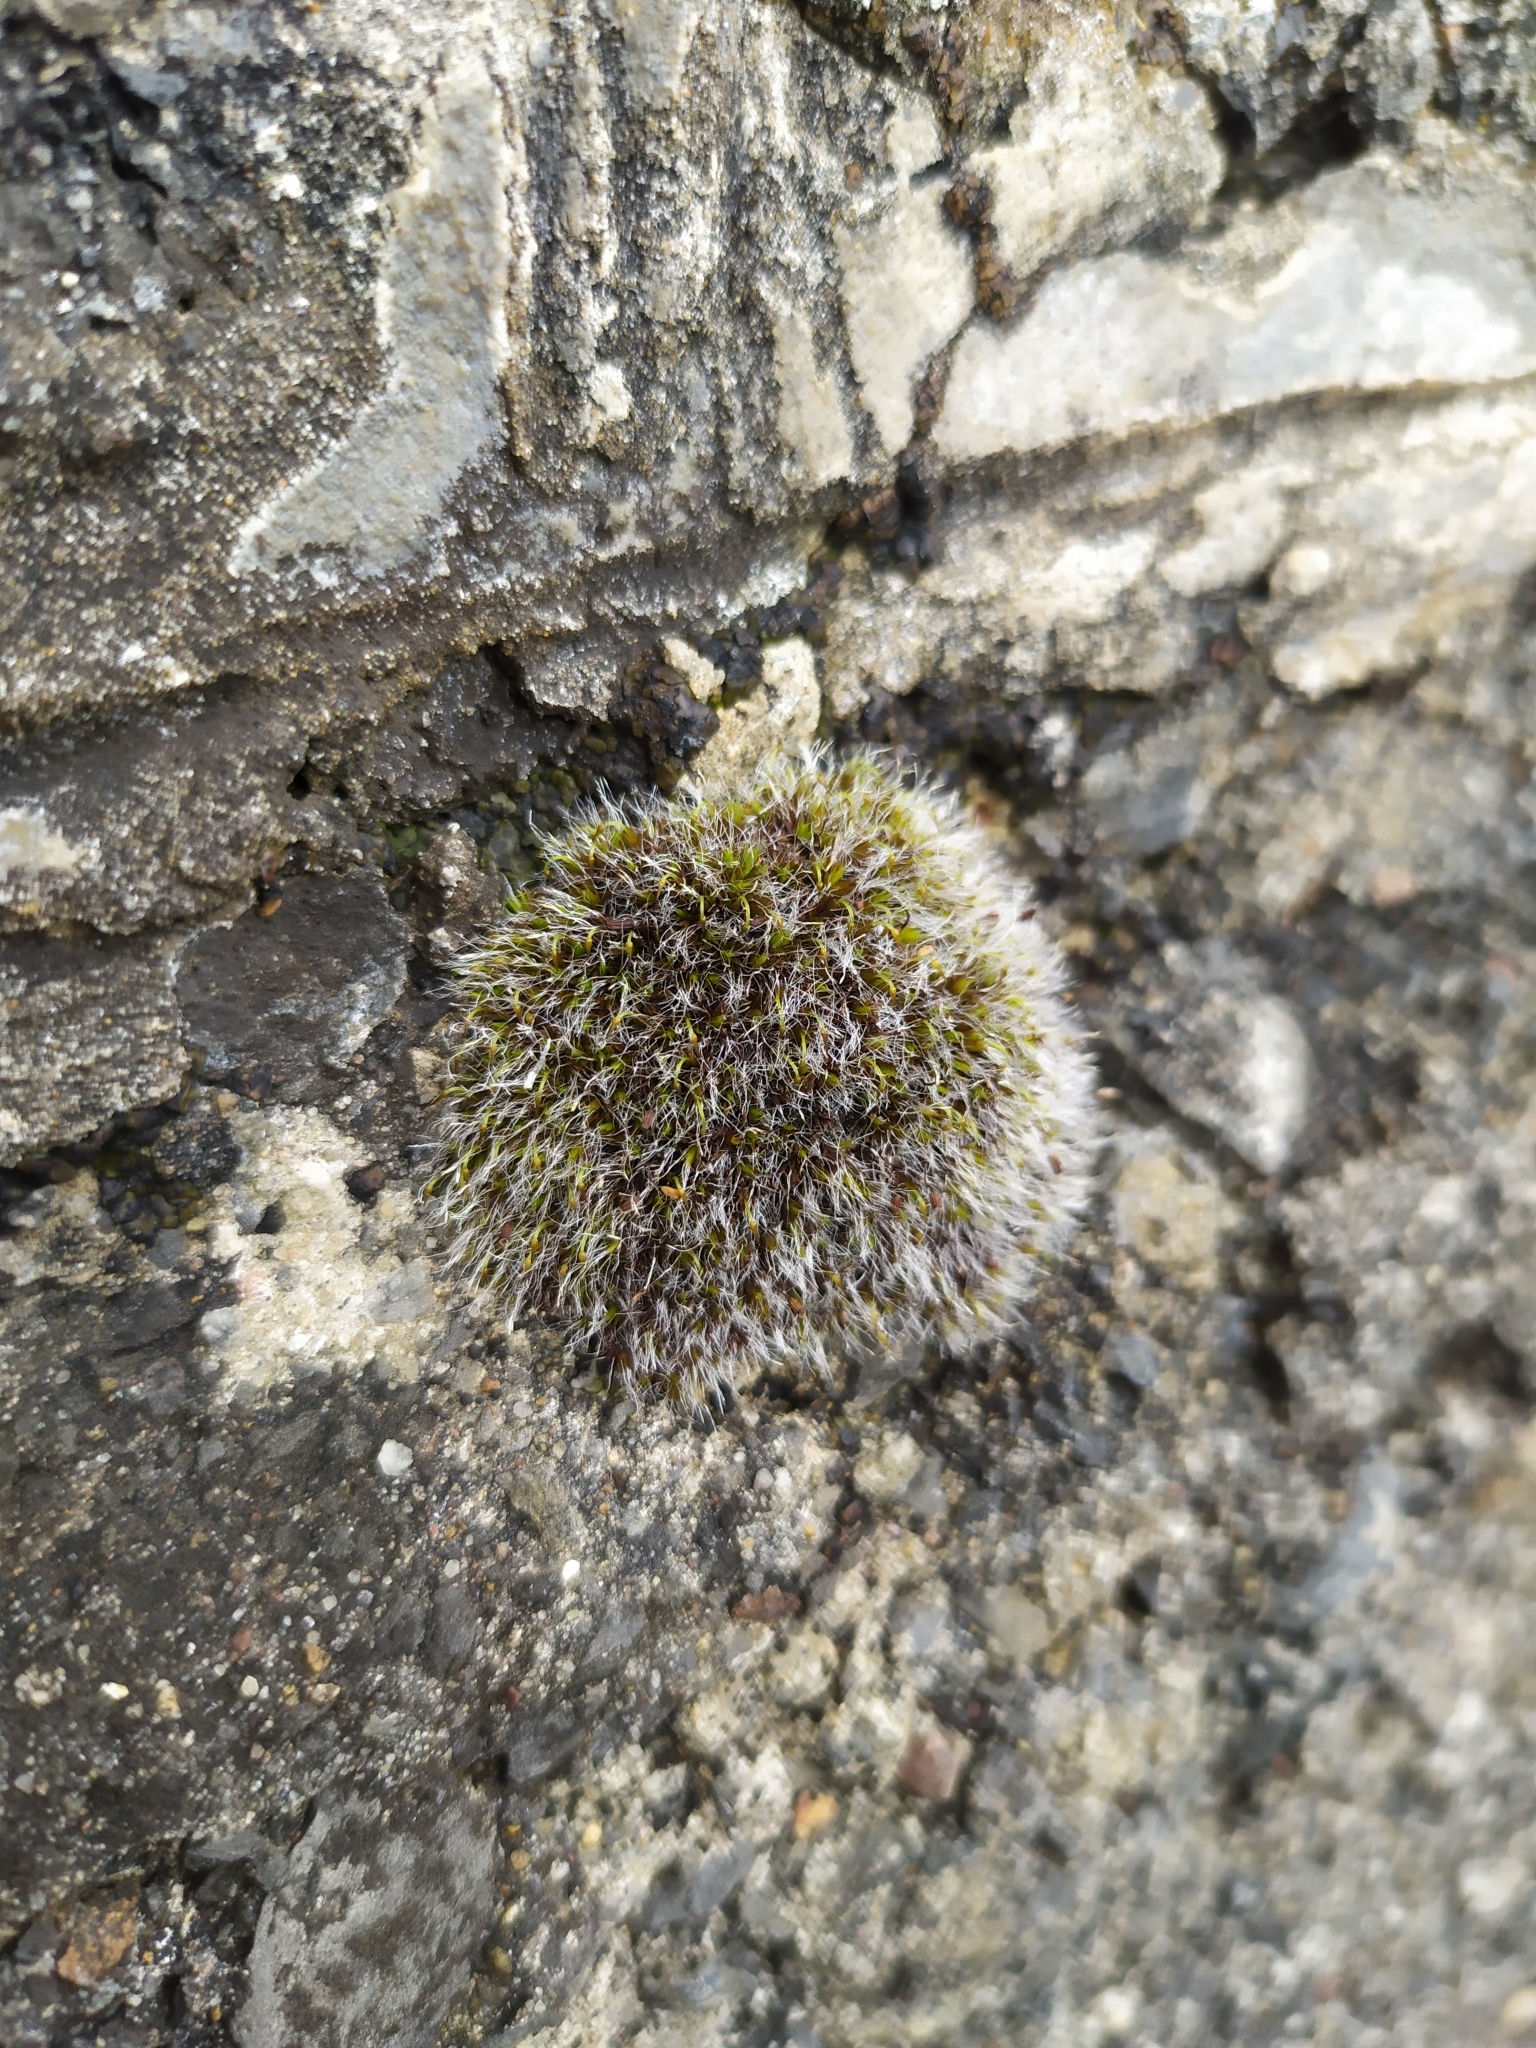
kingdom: Plantae
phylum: Bryophyta
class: Bryopsida
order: Grimmiales
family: Grimmiaceae
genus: Grimmia
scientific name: Grimmia pulvinata
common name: Grey-cushioned grimmia
